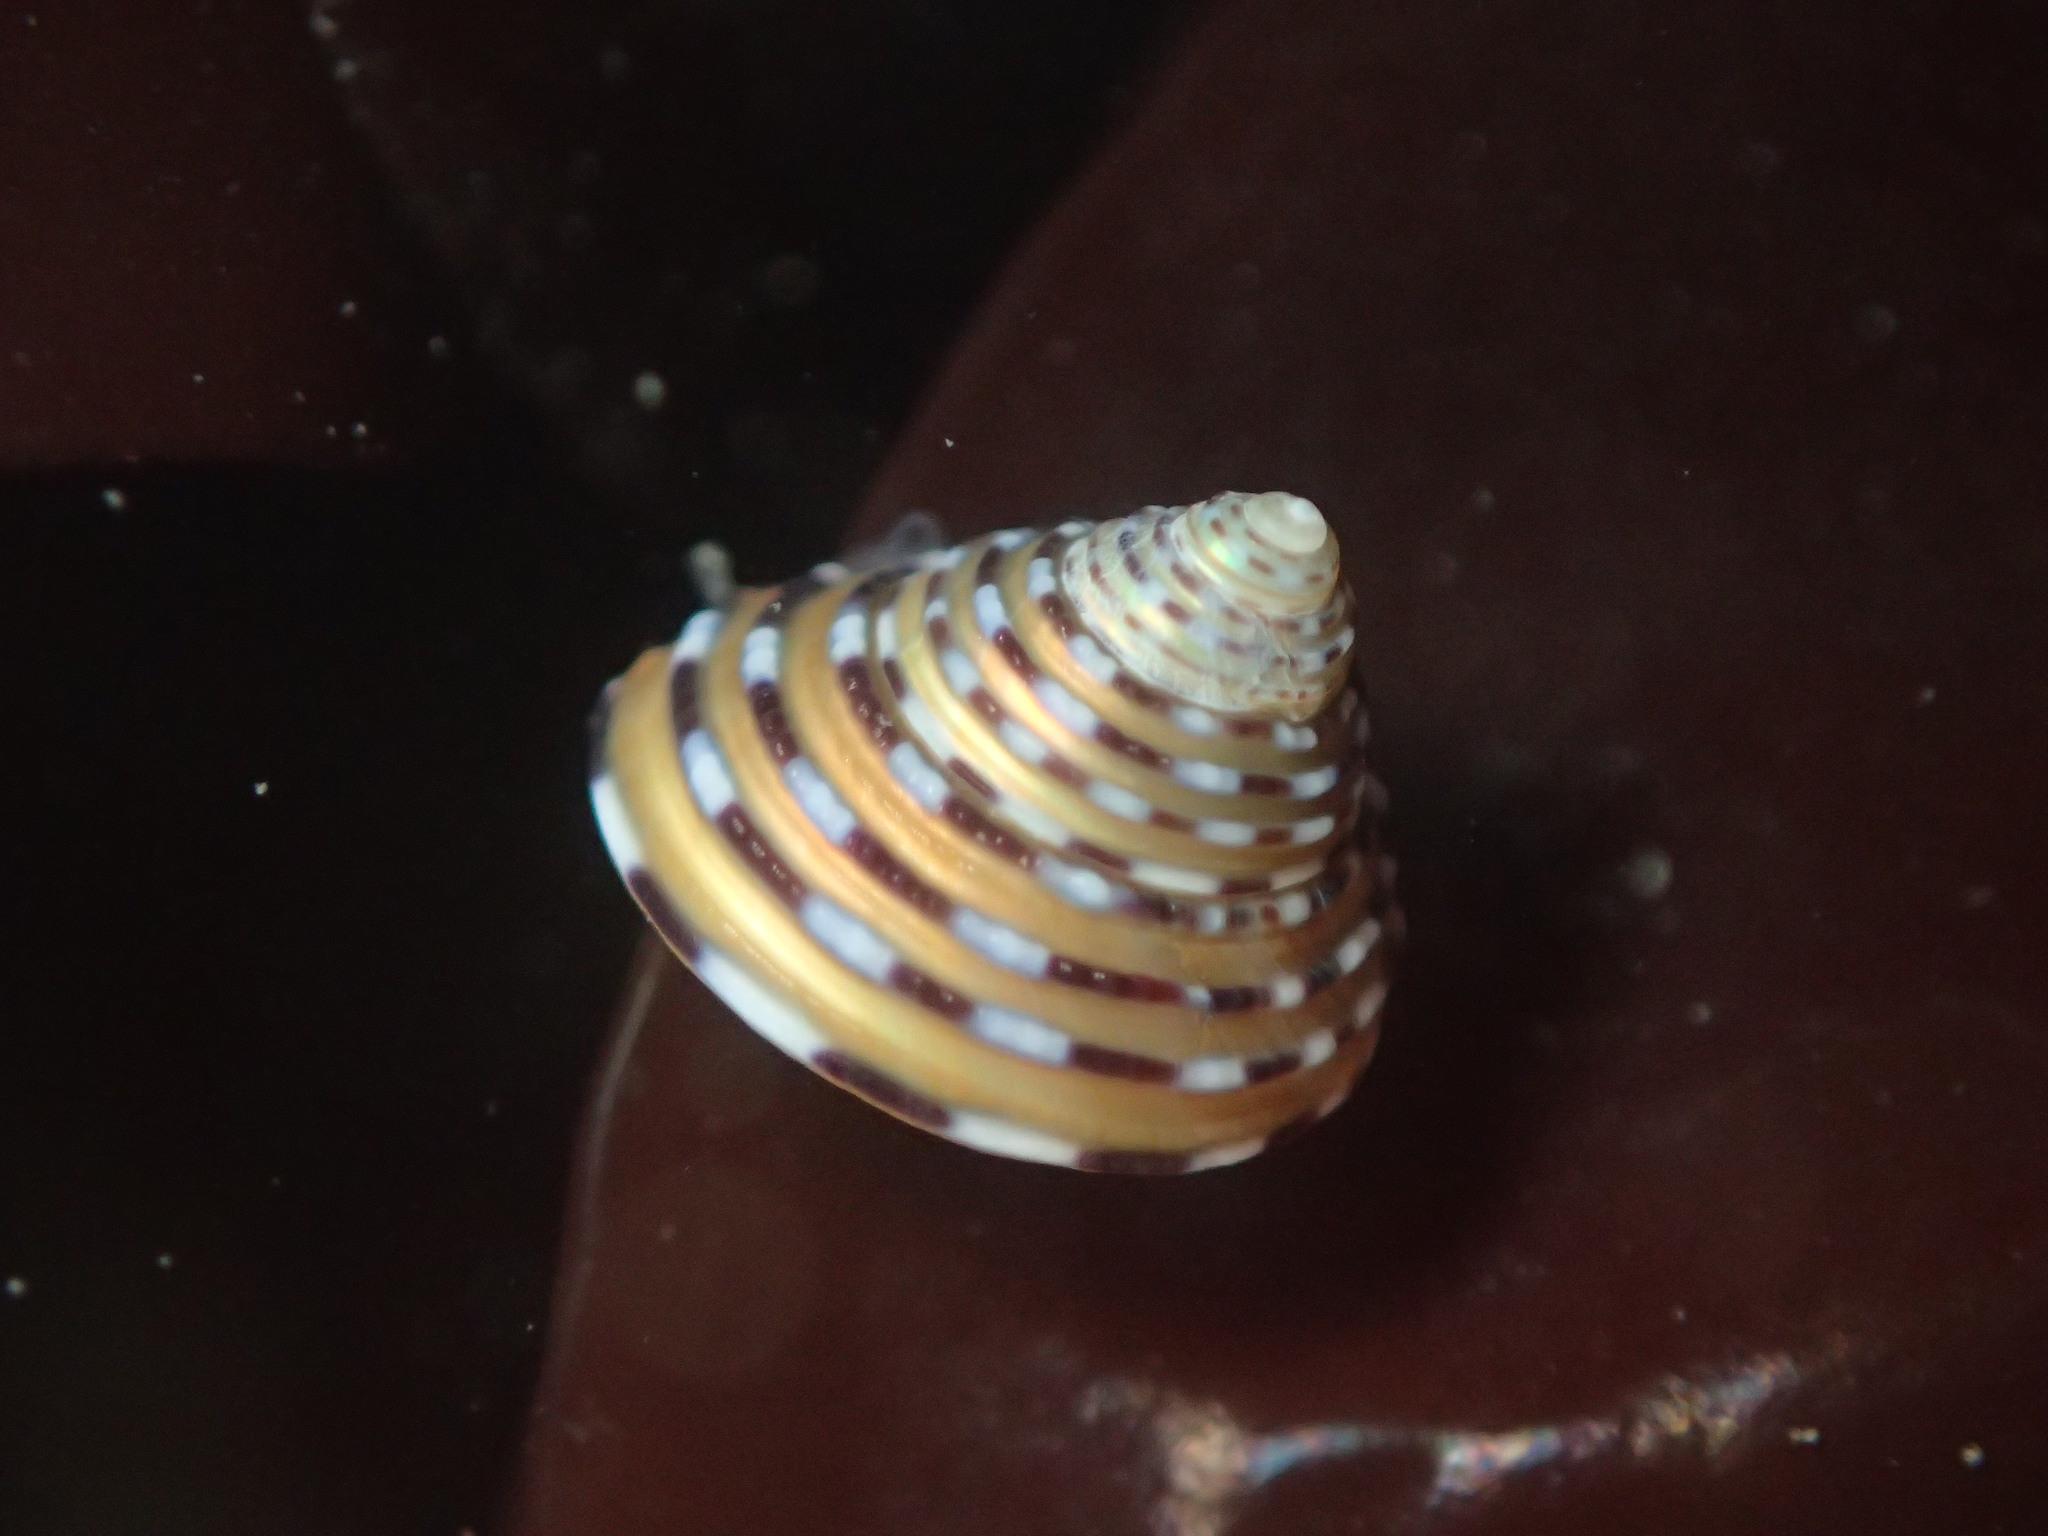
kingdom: Animalia
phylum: Mollusca
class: Gastropoda
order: Trochida
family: Calliostomatidae
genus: Calliostoma
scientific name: Calliostoma tricolor
